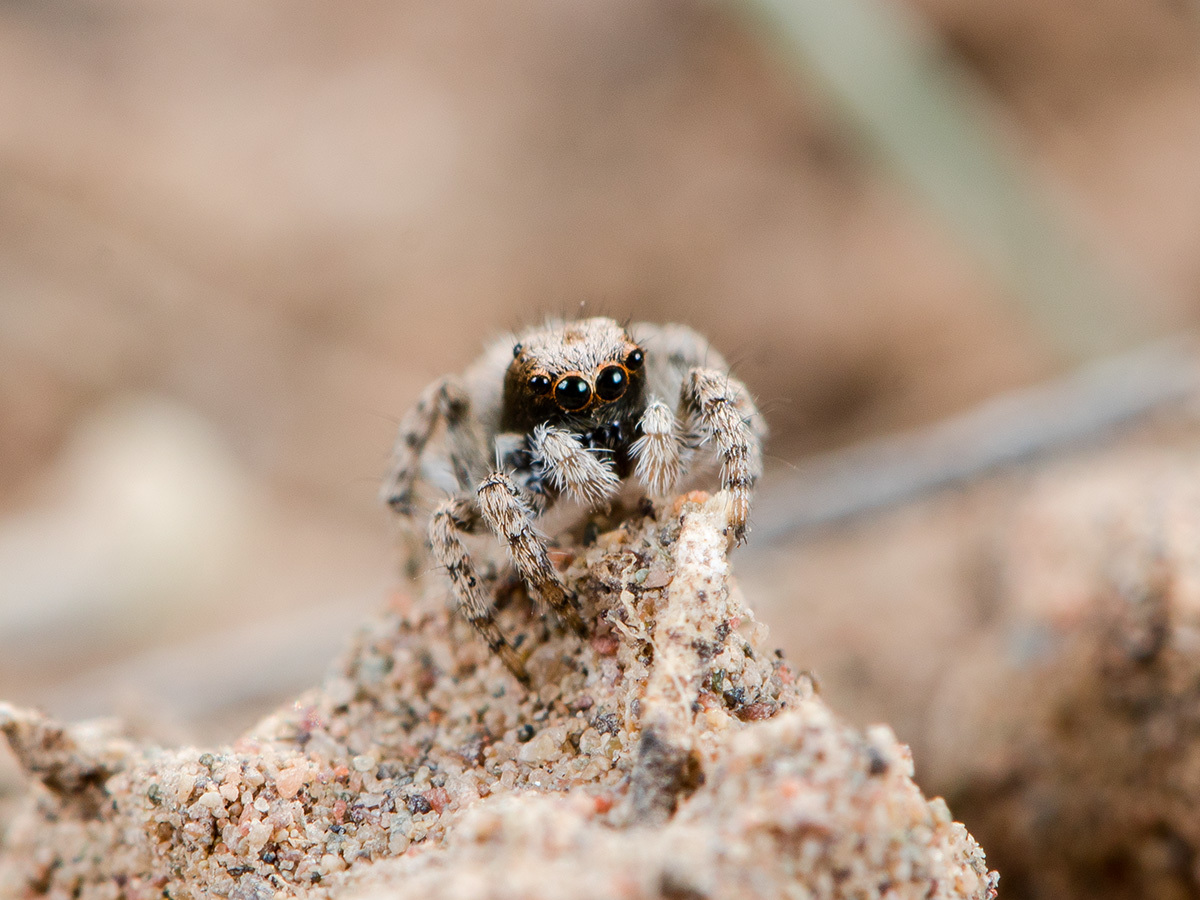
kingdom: Animalia
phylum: Arthropoda
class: Arachnida
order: Araneae
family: Salticidae
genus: Aelurillus
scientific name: Aelurillus andreevae
